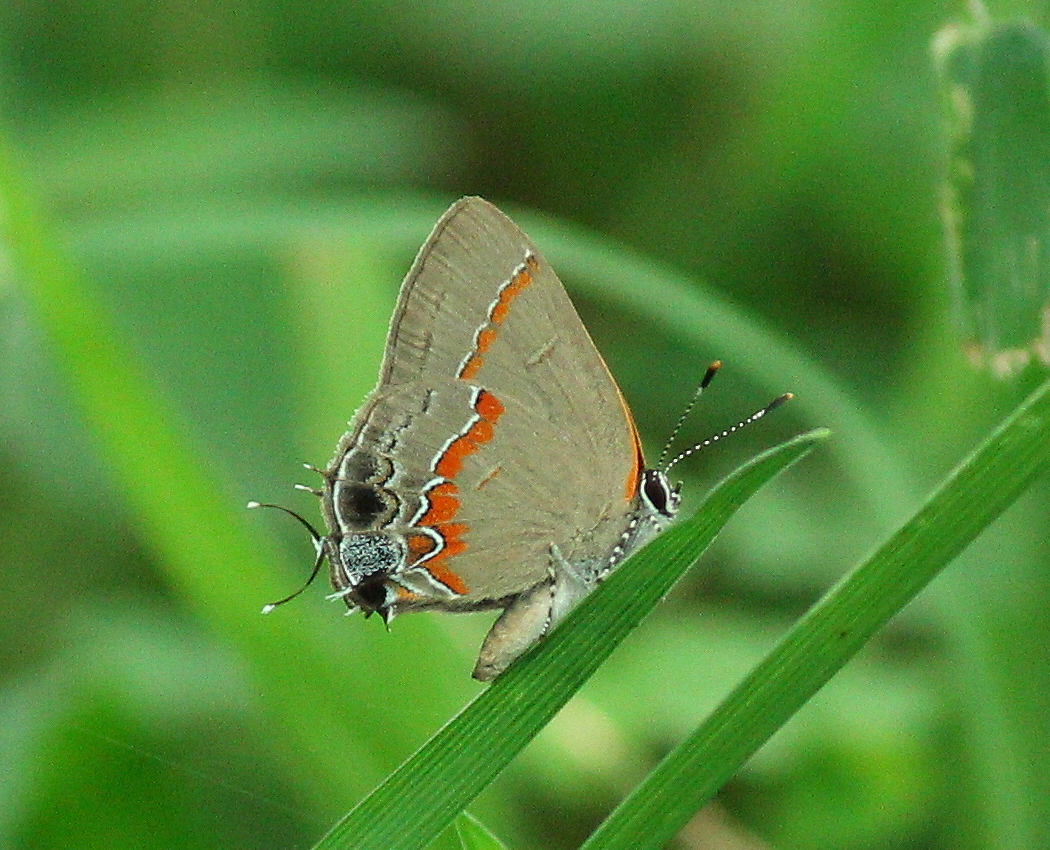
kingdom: Animalia
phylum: Arthropoda
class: Insecta
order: Lepidoptera
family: Lycaenidae
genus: Calycopis
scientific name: Calycopis cecrops
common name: Red-banded hairstreak
